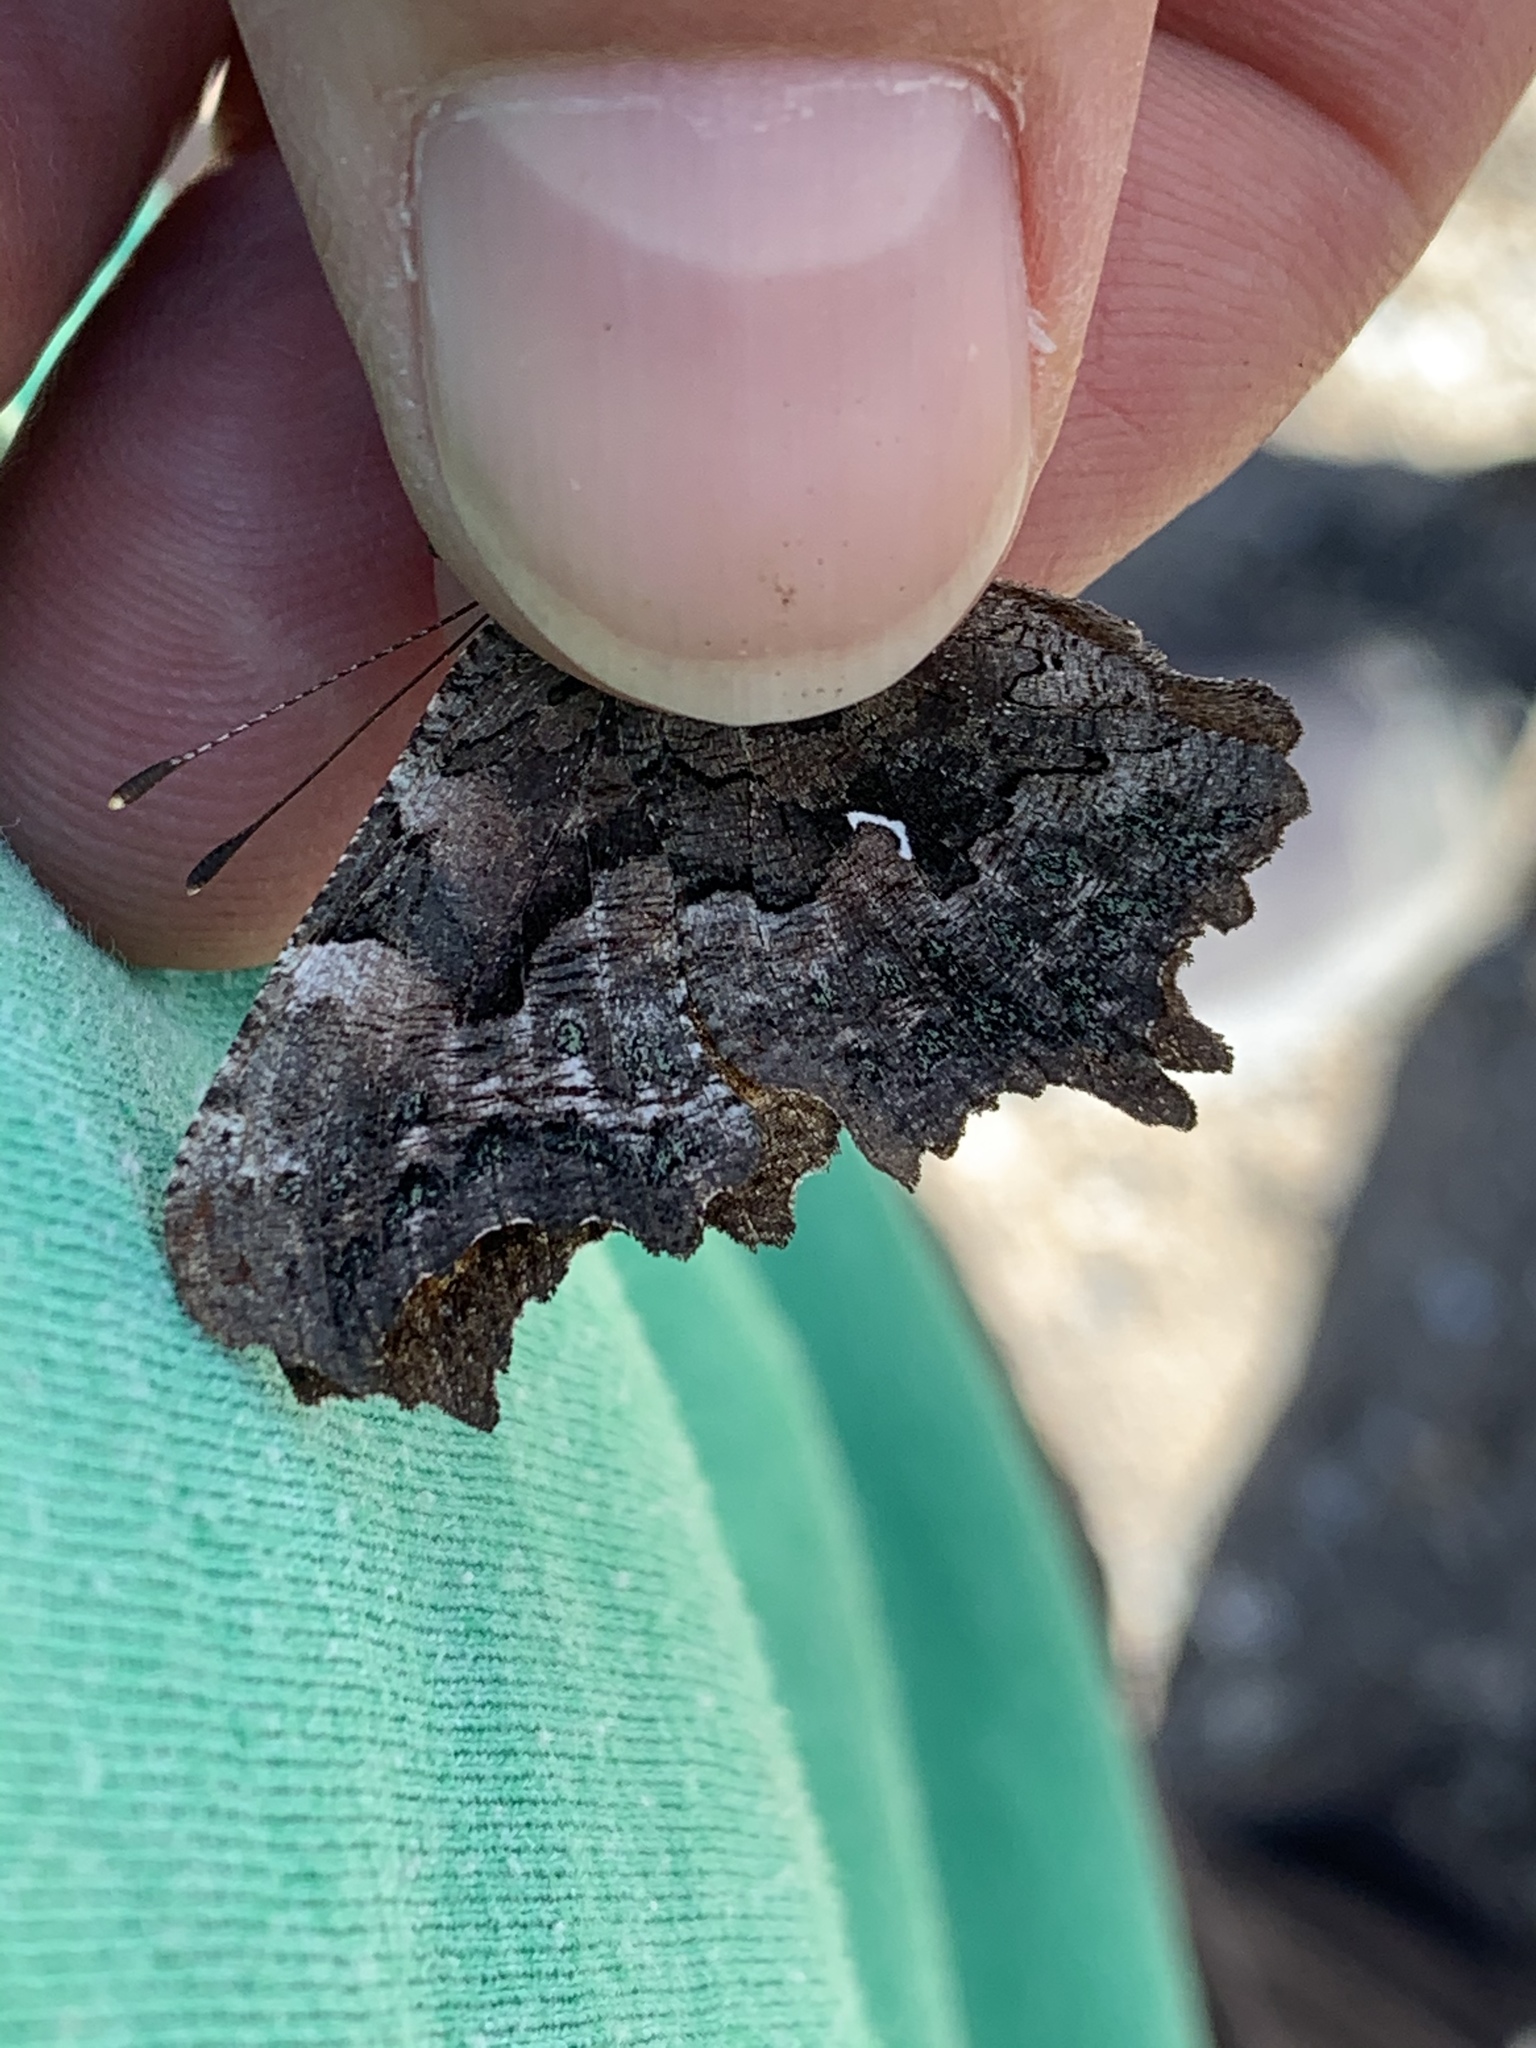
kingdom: Animalia
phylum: Arthropoda
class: Insecta
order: Lepidoptera
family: Nymphalidae
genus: Polygonia
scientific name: Polygonia faunus
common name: Green comma
